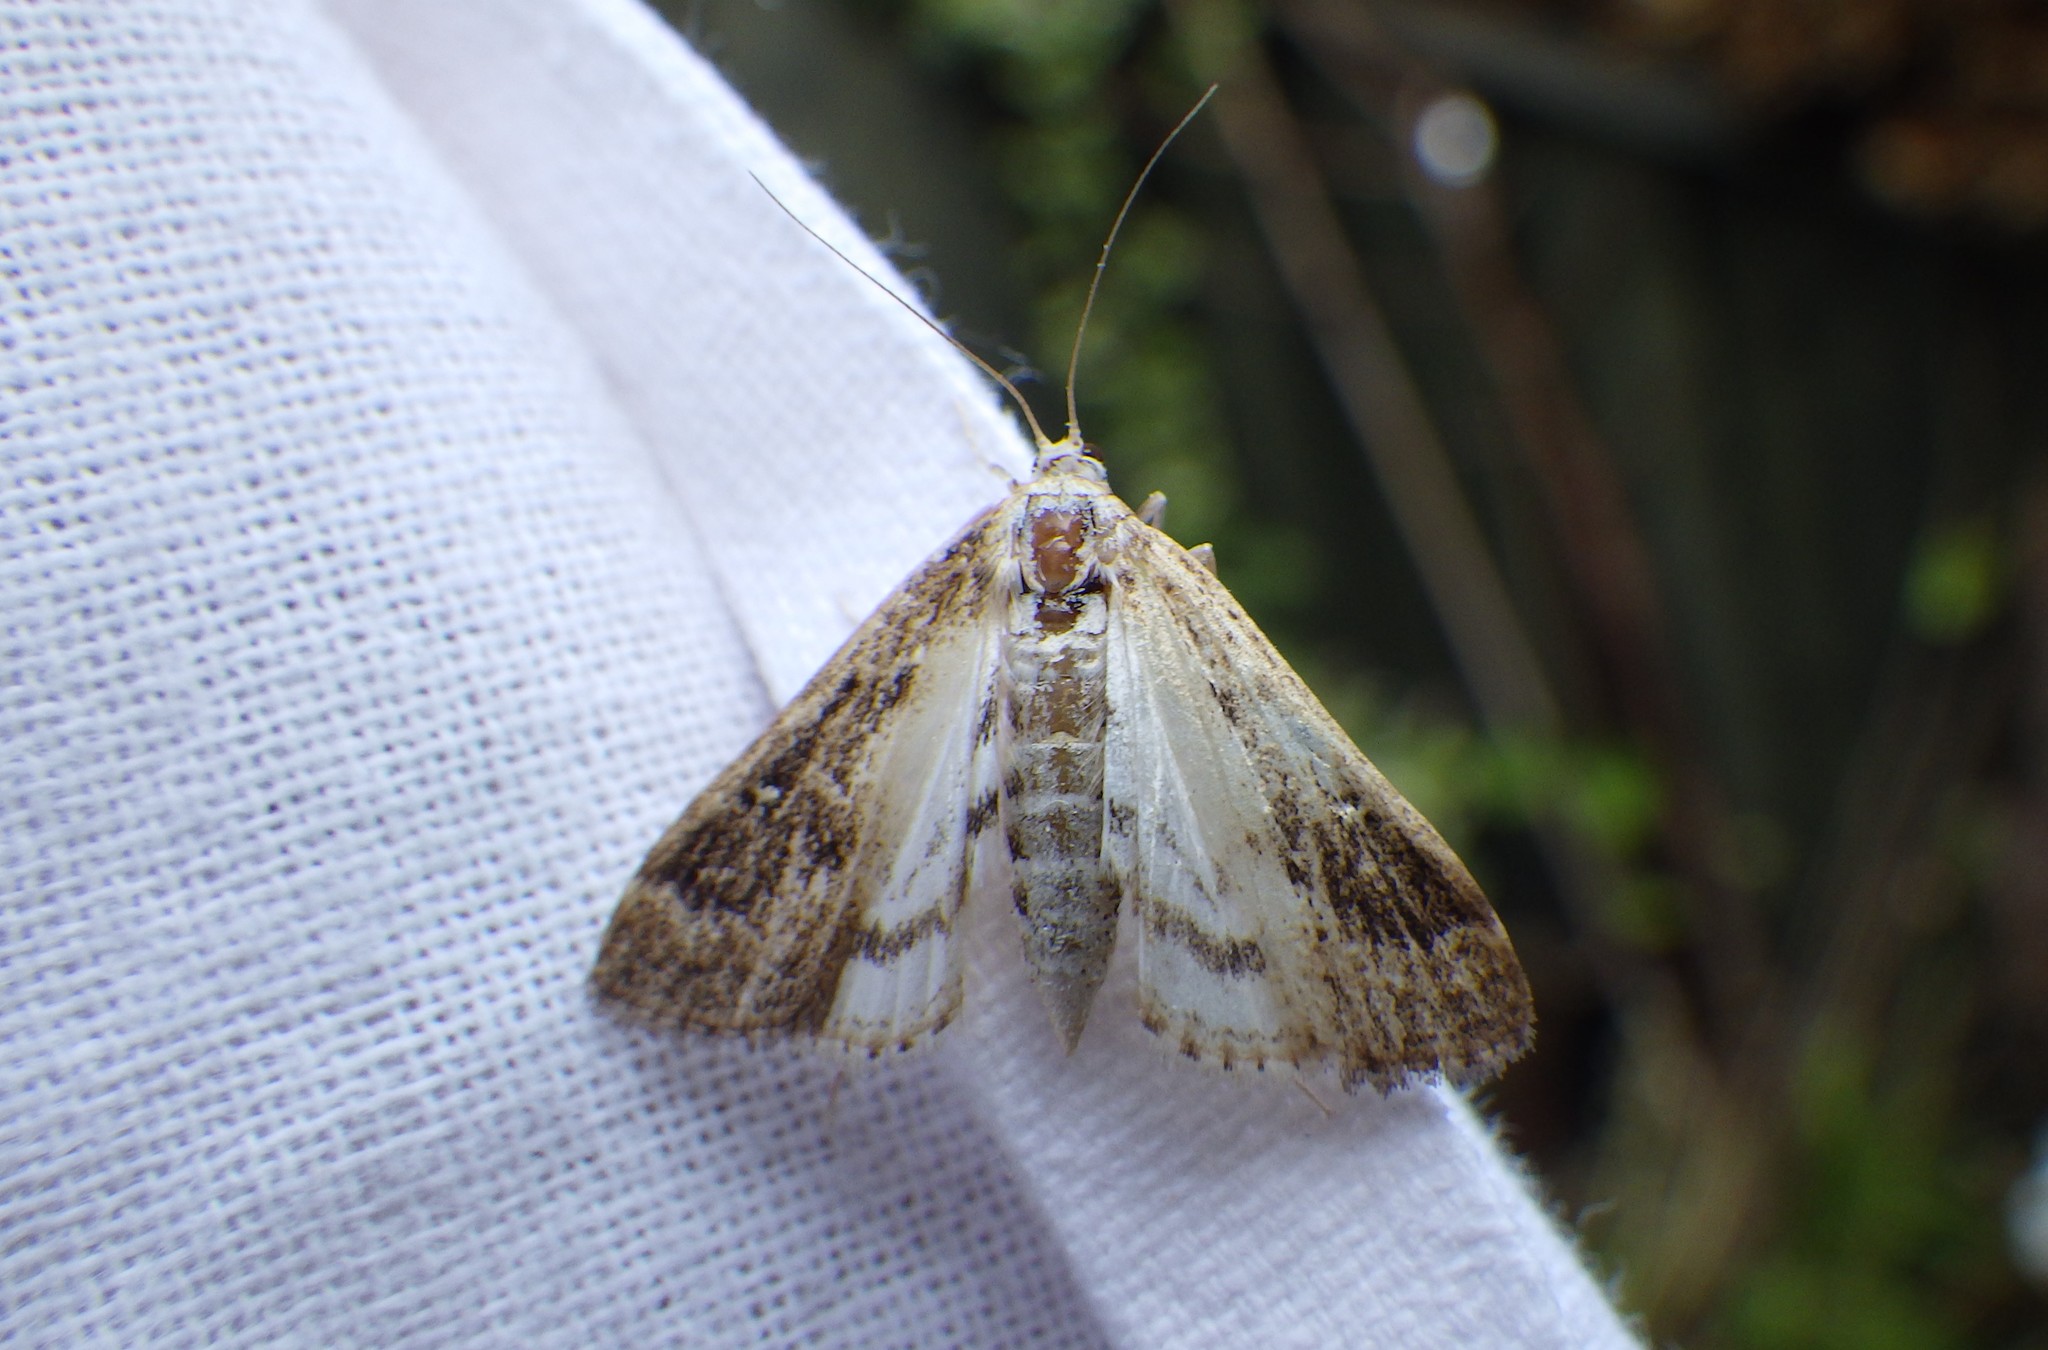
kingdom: Animalia
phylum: Arthropoda
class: Insecta
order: Lepidoptera
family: Crambidae
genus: Parapoynx
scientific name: Parapoynx stratiotata
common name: Ringed china-mark
